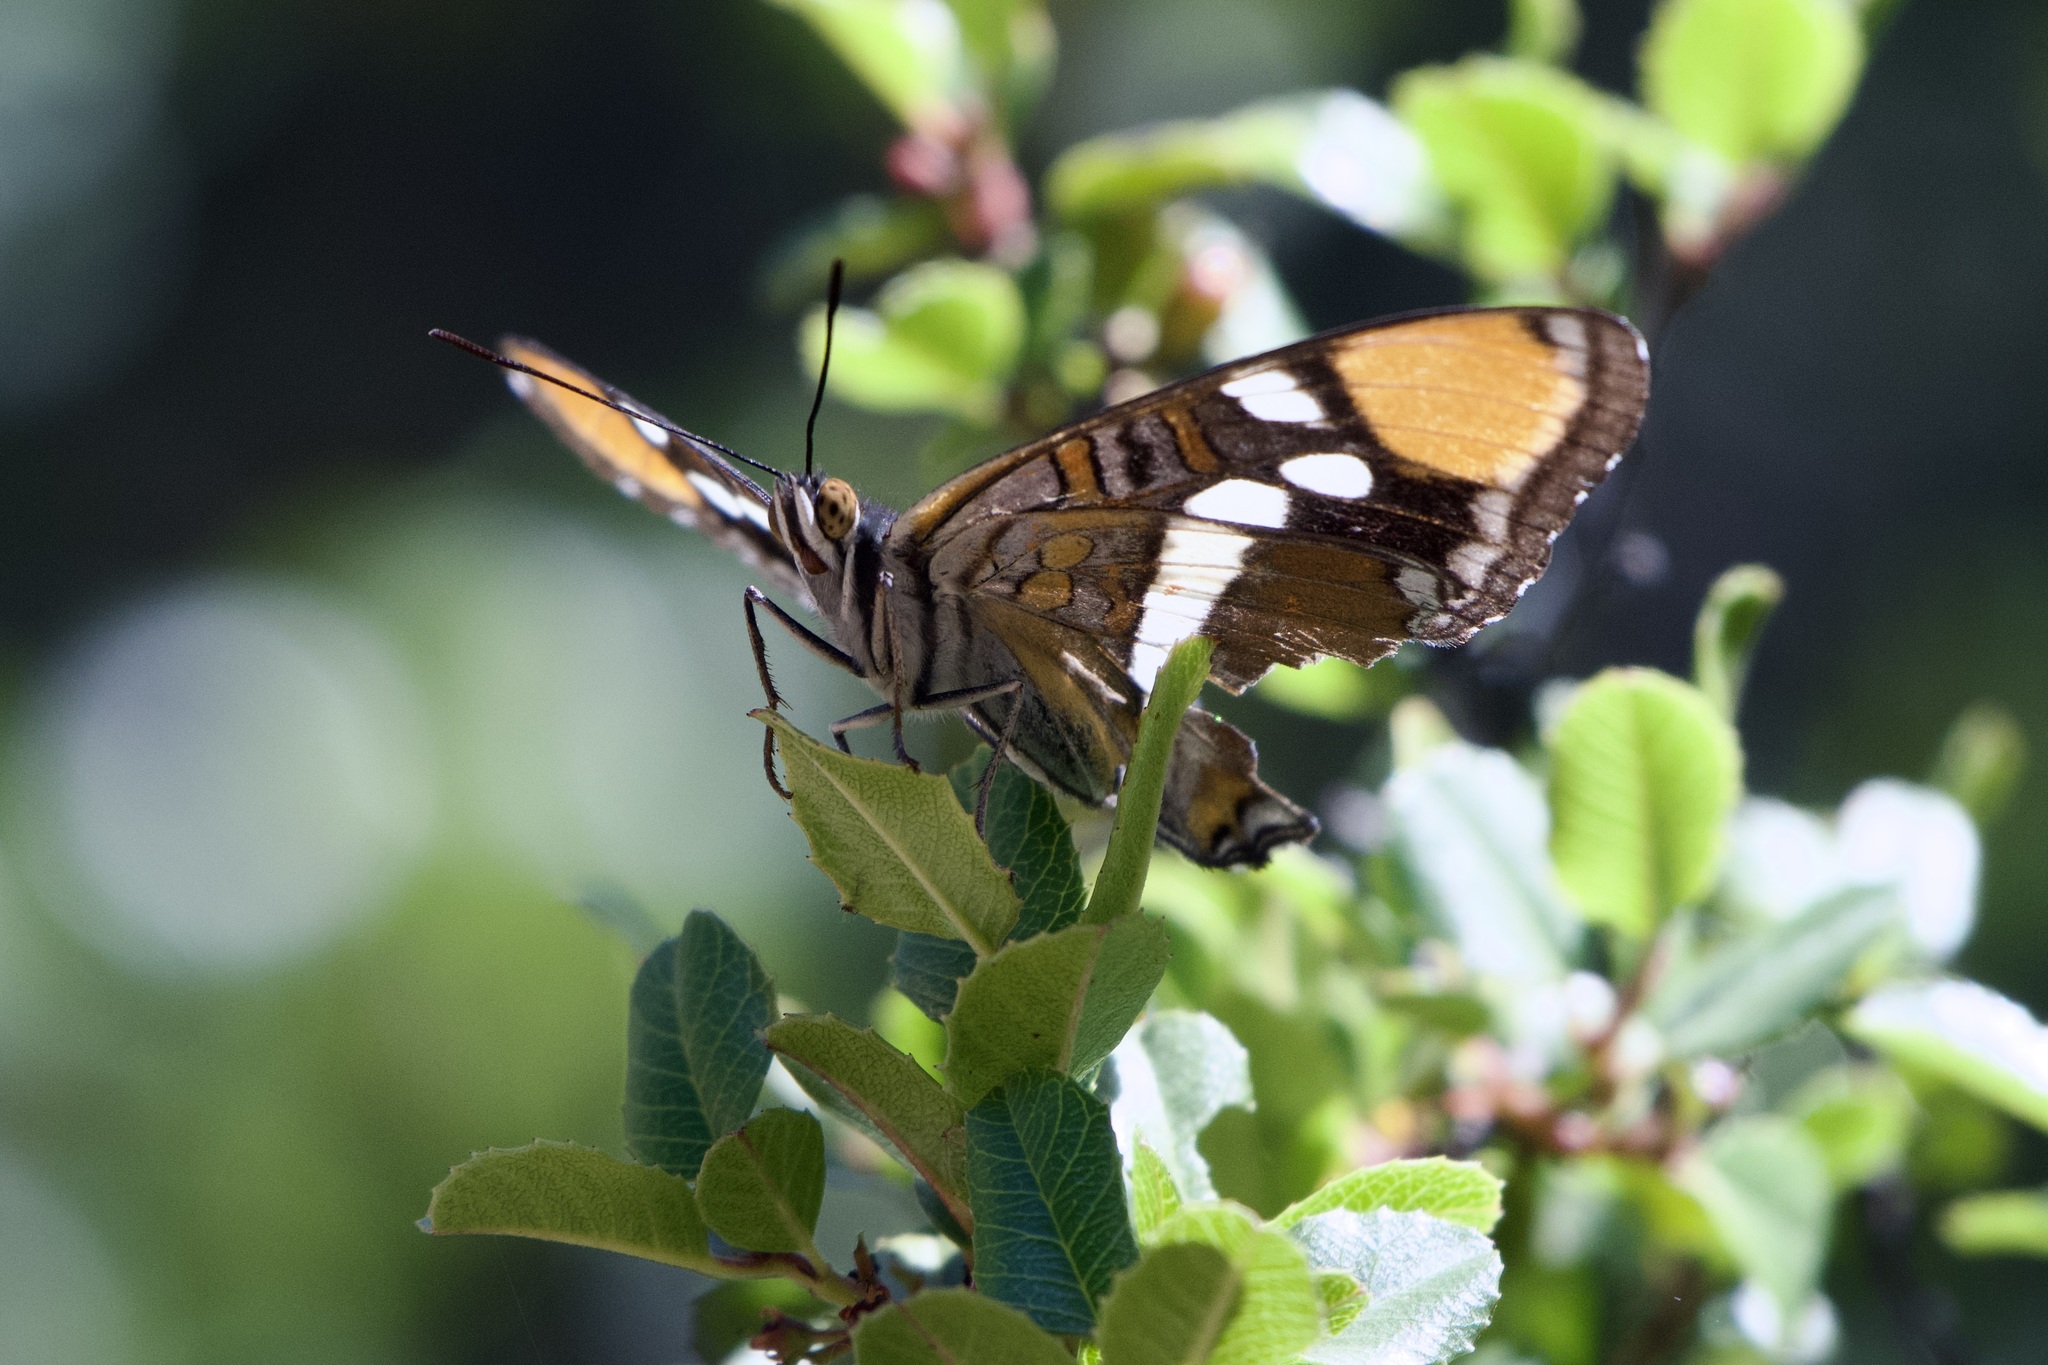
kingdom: Animalia
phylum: Arthropoda
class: Insecta
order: Lepidoptera
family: Nymphalidae
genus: Limenitis
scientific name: Limenitis bredowii
